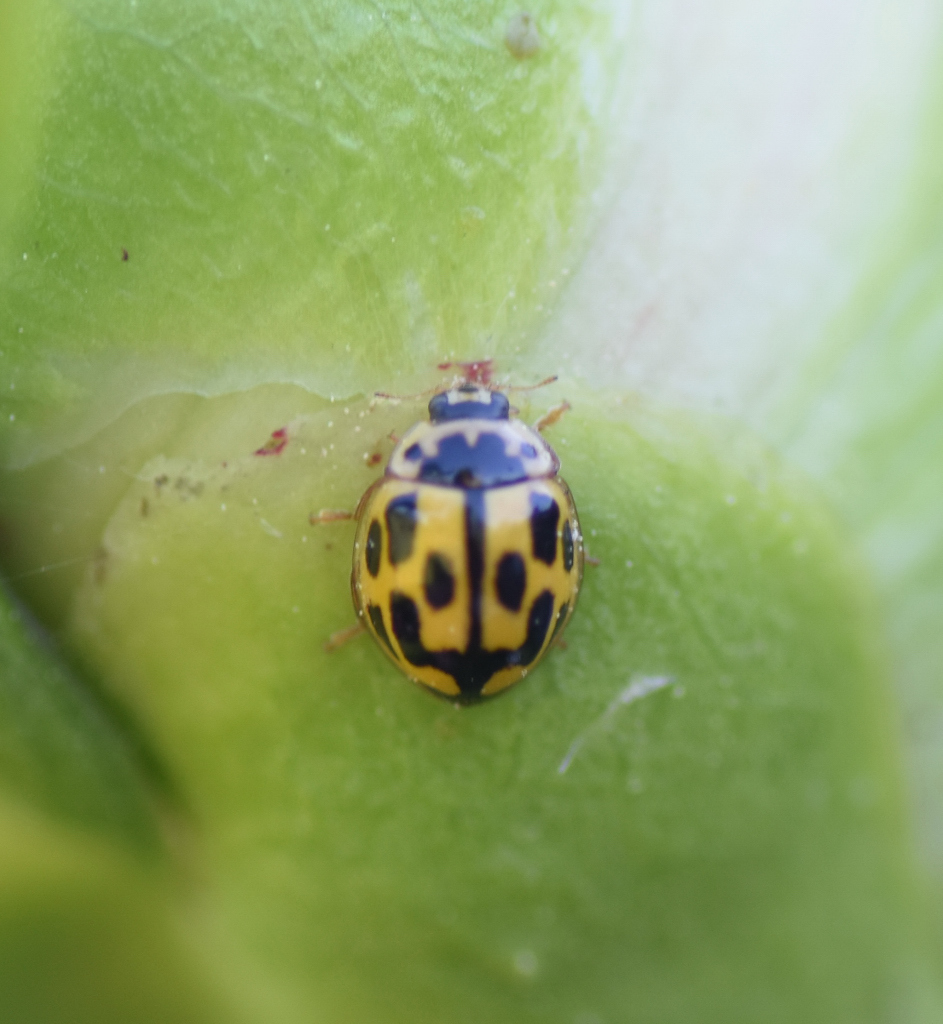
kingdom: Animalia
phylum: Arthropoda
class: Insecta
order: Coleoptera
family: Coccinellidae
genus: Propylaea
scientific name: Propylaea quatuordecimpunctata
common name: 14-spotted ladybird beetle
